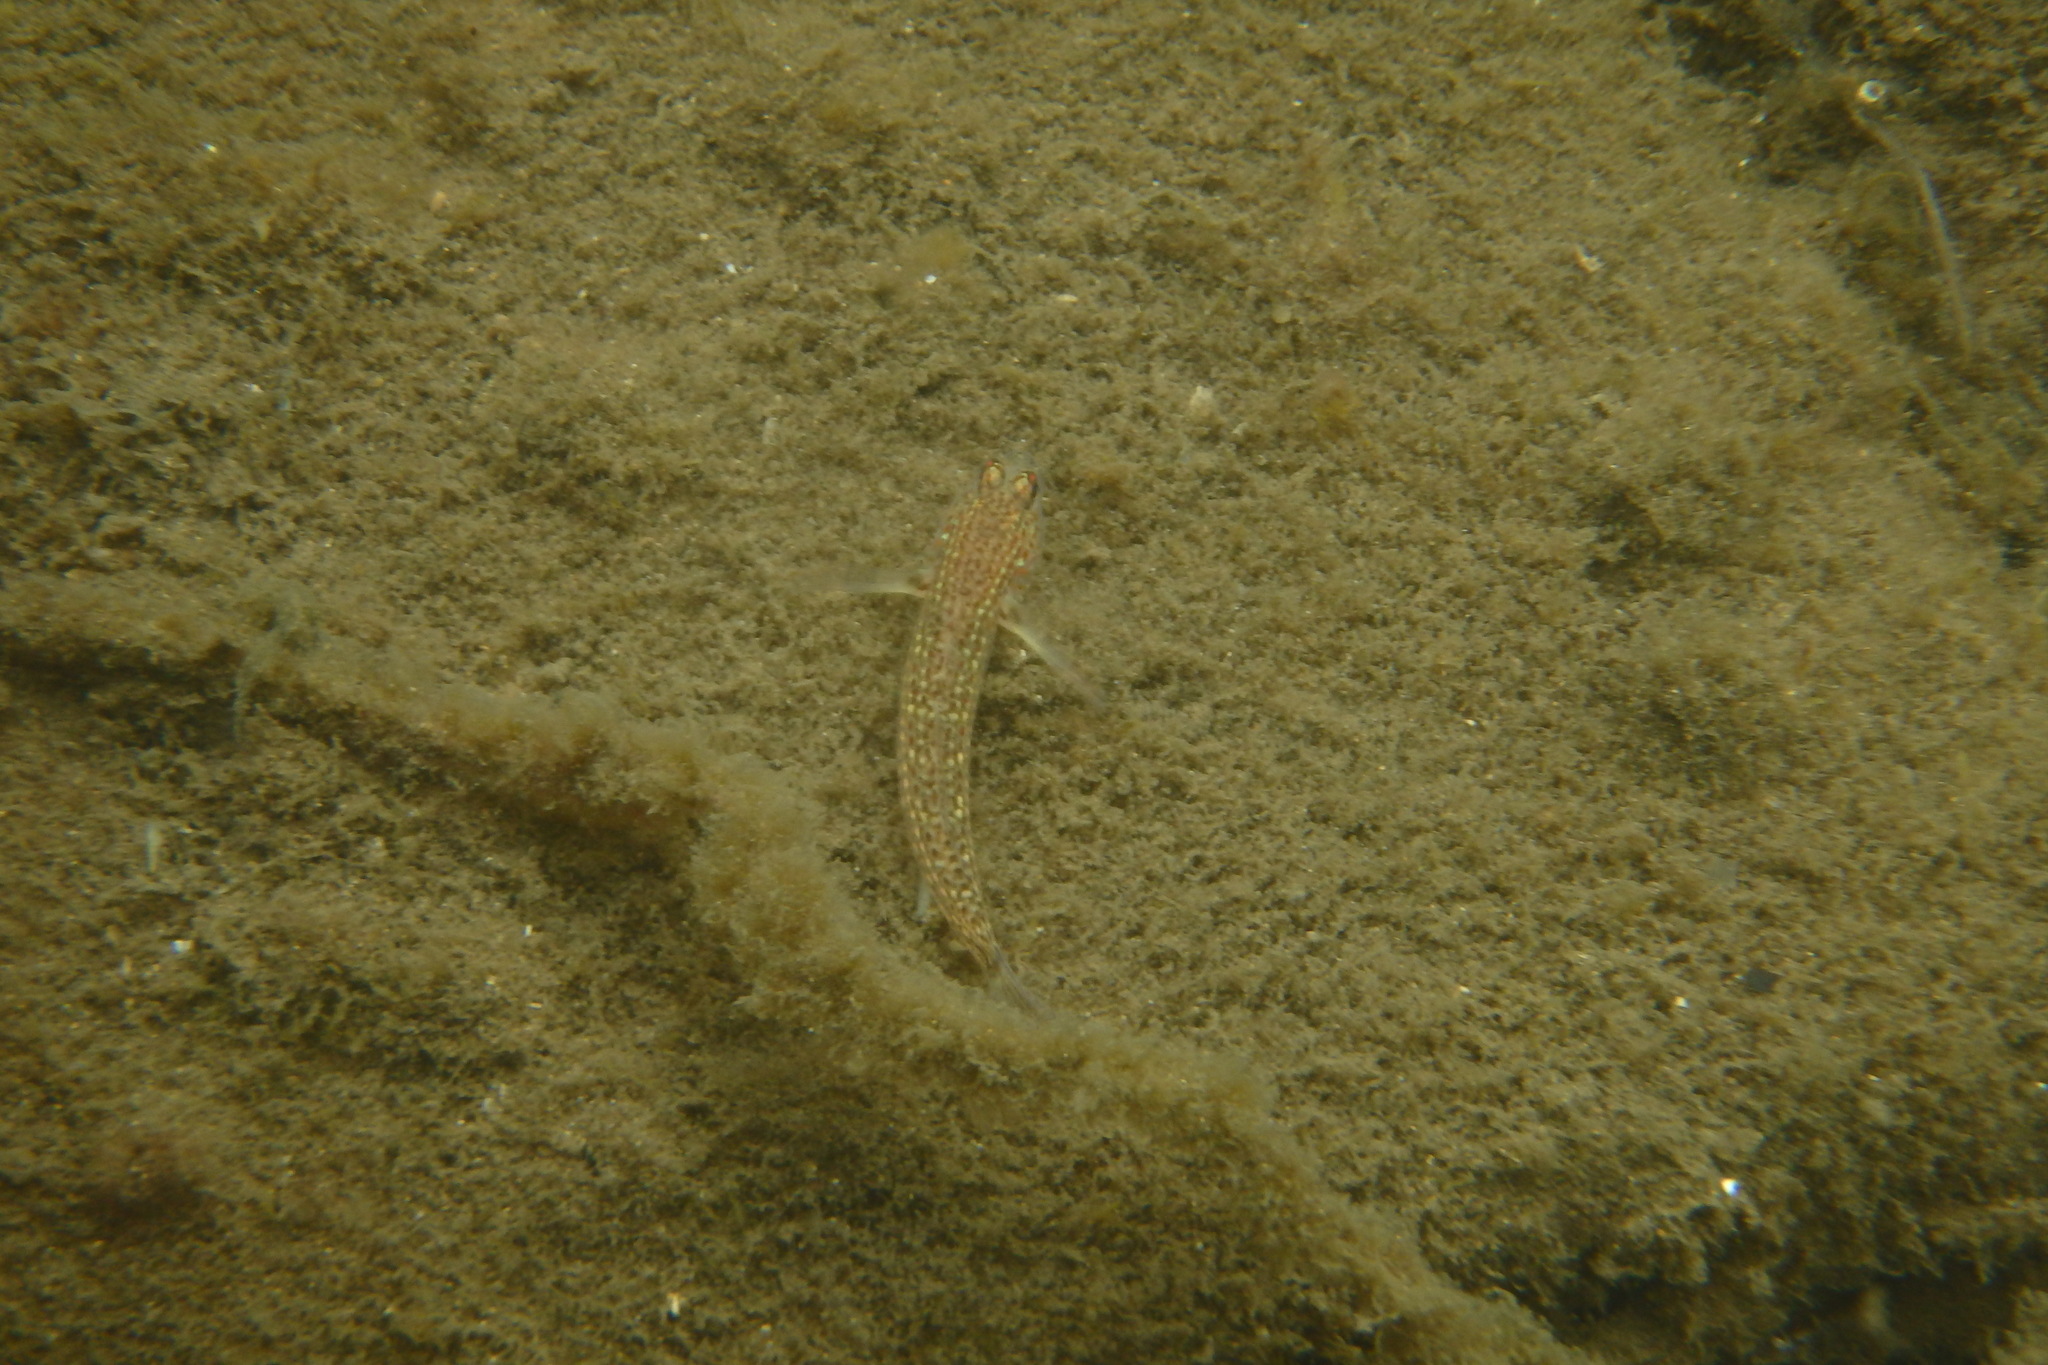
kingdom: Animalia
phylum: Chordata
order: Perciformes
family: Gobiidae
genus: Istigobius
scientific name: Istigobius hoesei
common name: Hoese's sandgoby
